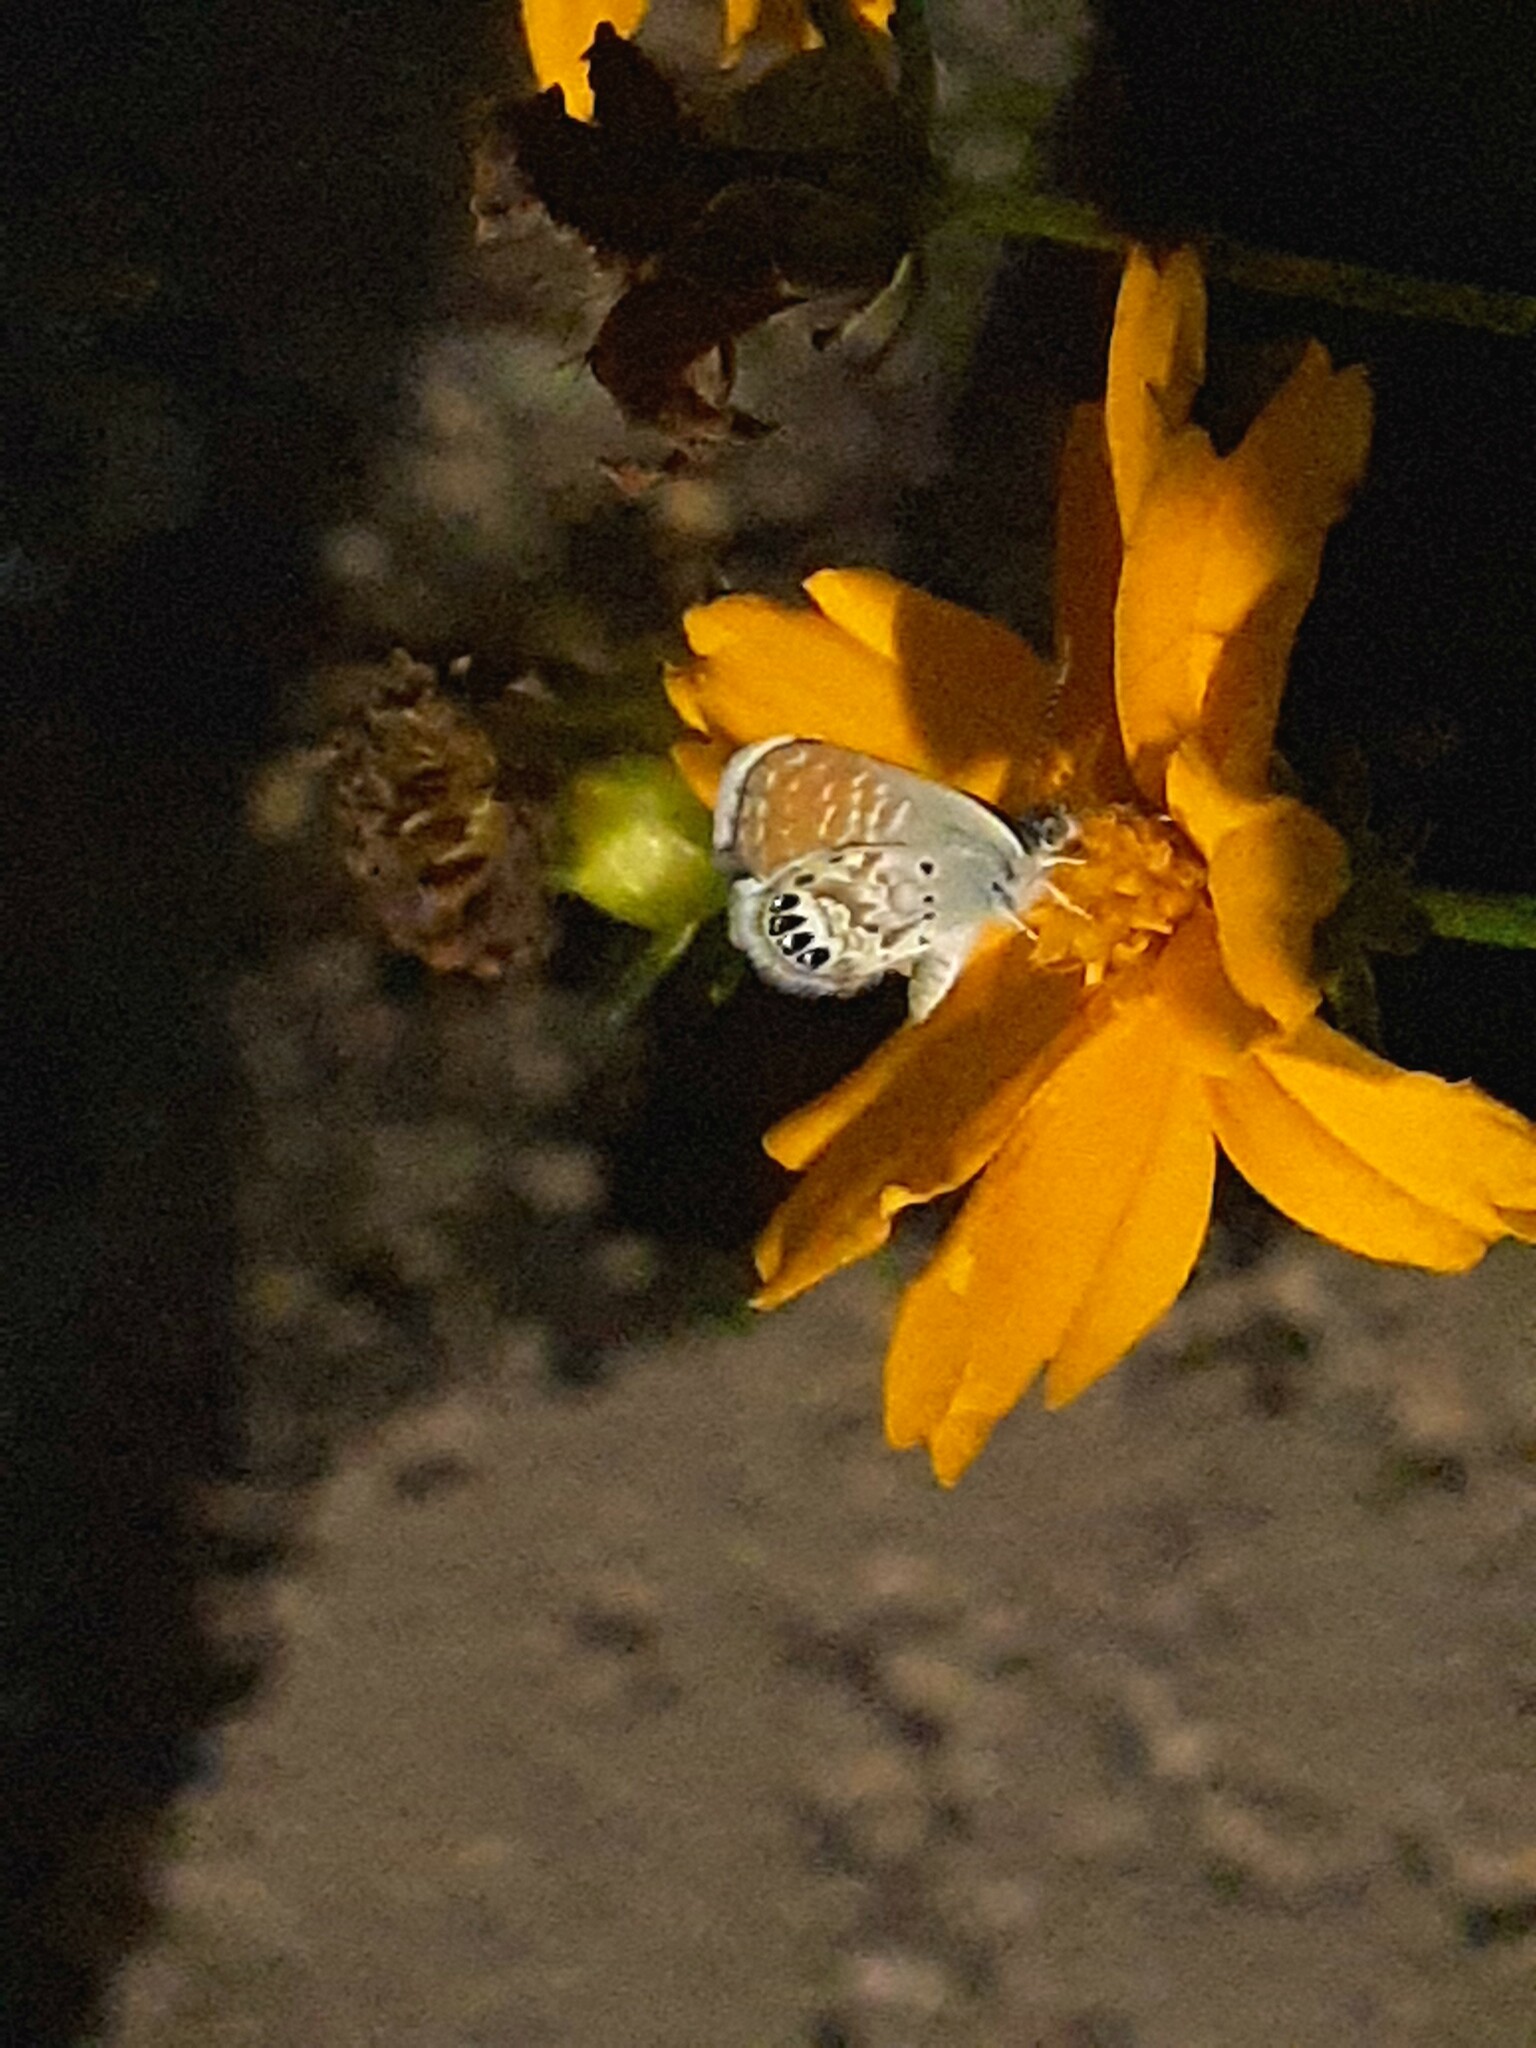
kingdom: Animalia
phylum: Arthropoda
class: Insecta
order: Lepidoptera
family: Lycaenidae
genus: Brephidium
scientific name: Brephidium exilis
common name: Pygmy blue
